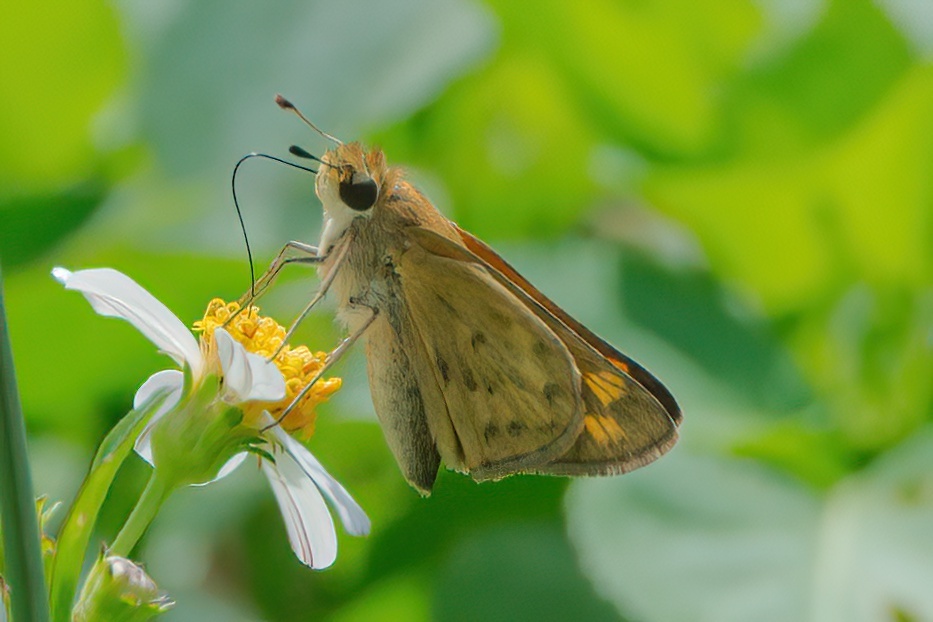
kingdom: Animalia
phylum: Arthropoda
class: Insecta
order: Lepidoptera
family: Hesperiidae
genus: Hylephila
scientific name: Hylephila phyleus
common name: Fiery skipper
